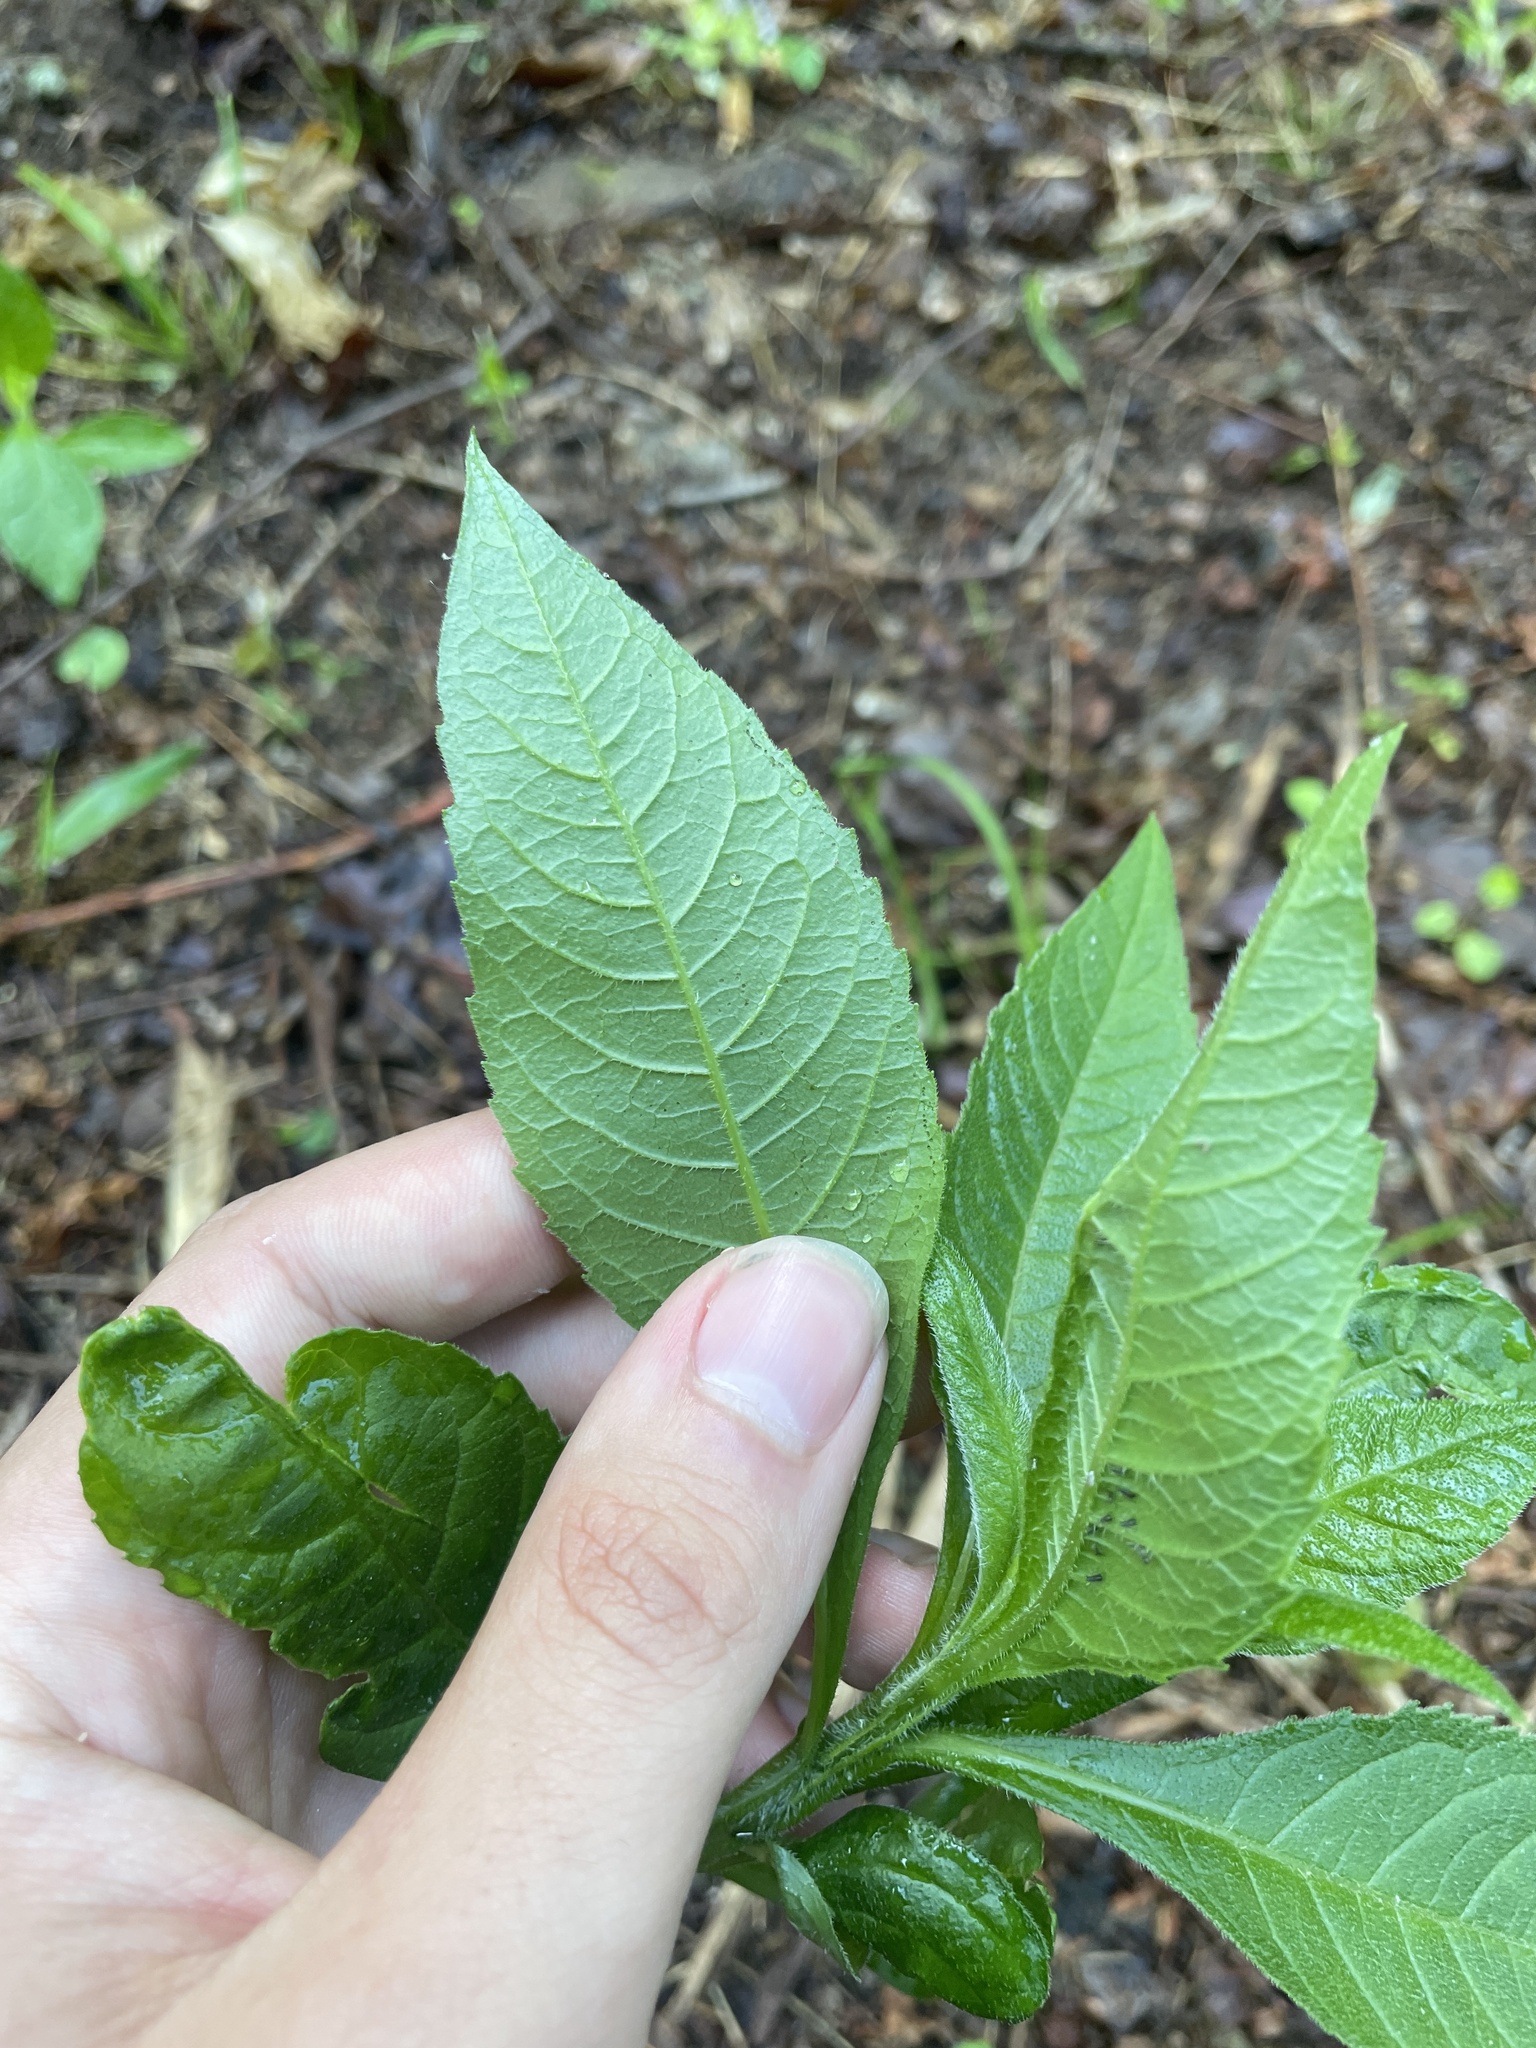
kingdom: Plantae
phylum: Tracheophyta
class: Magnoliopsida
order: Asterales
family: Asteraceae
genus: Elephantopus
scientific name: Elephantopus carolinianus
